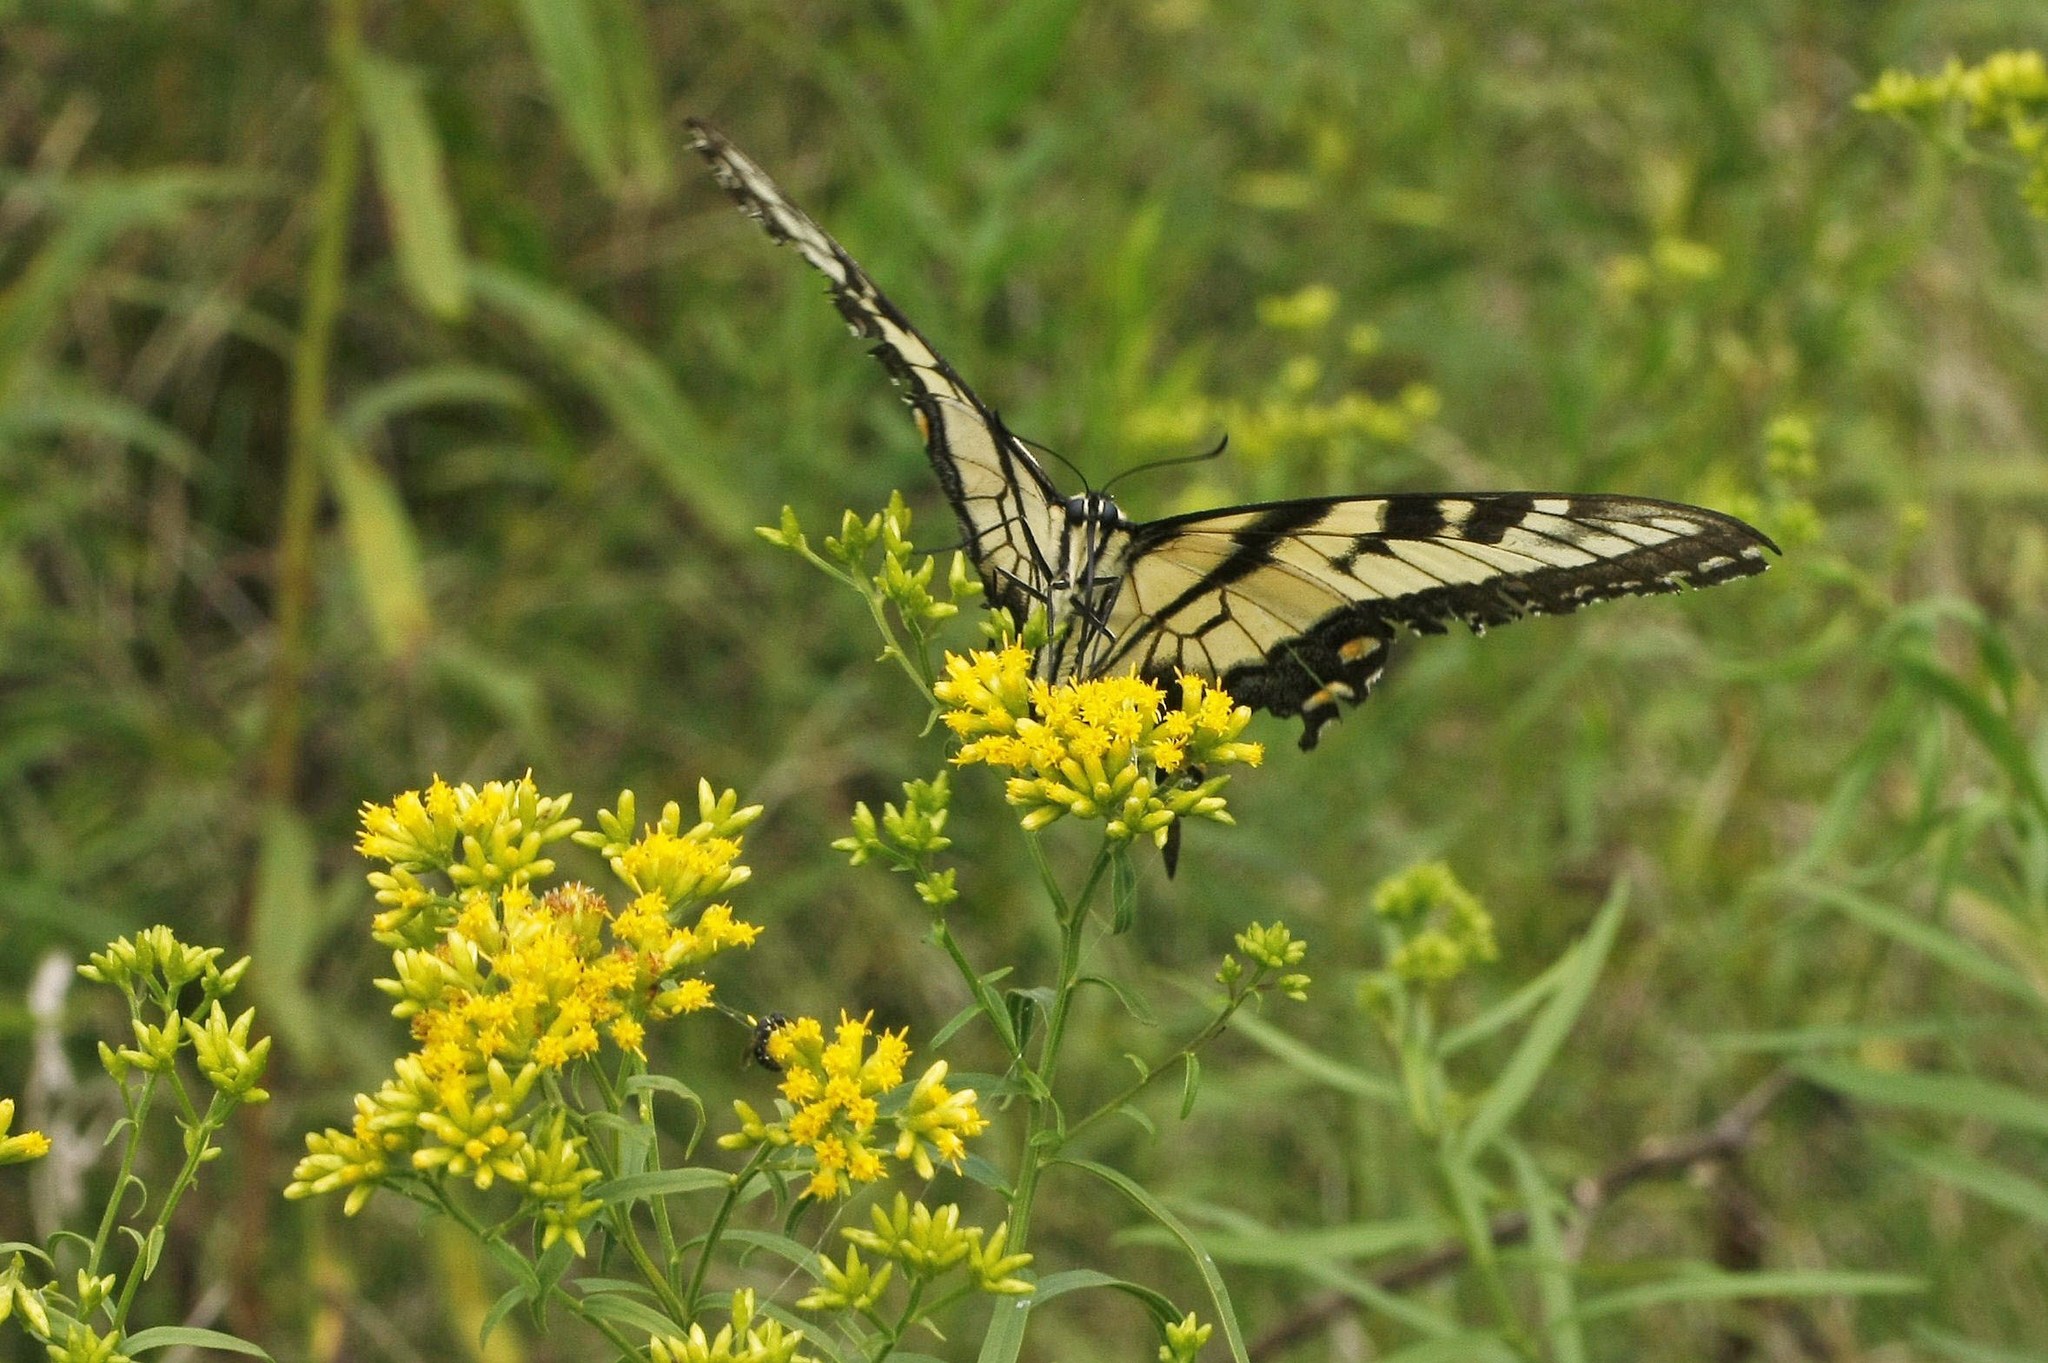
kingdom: Animalia
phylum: Arthropoda
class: Insecta
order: Lepidoptera
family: Papilionidae
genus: Papilio
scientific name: Papilio glaucus
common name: Tiger swallowtail
